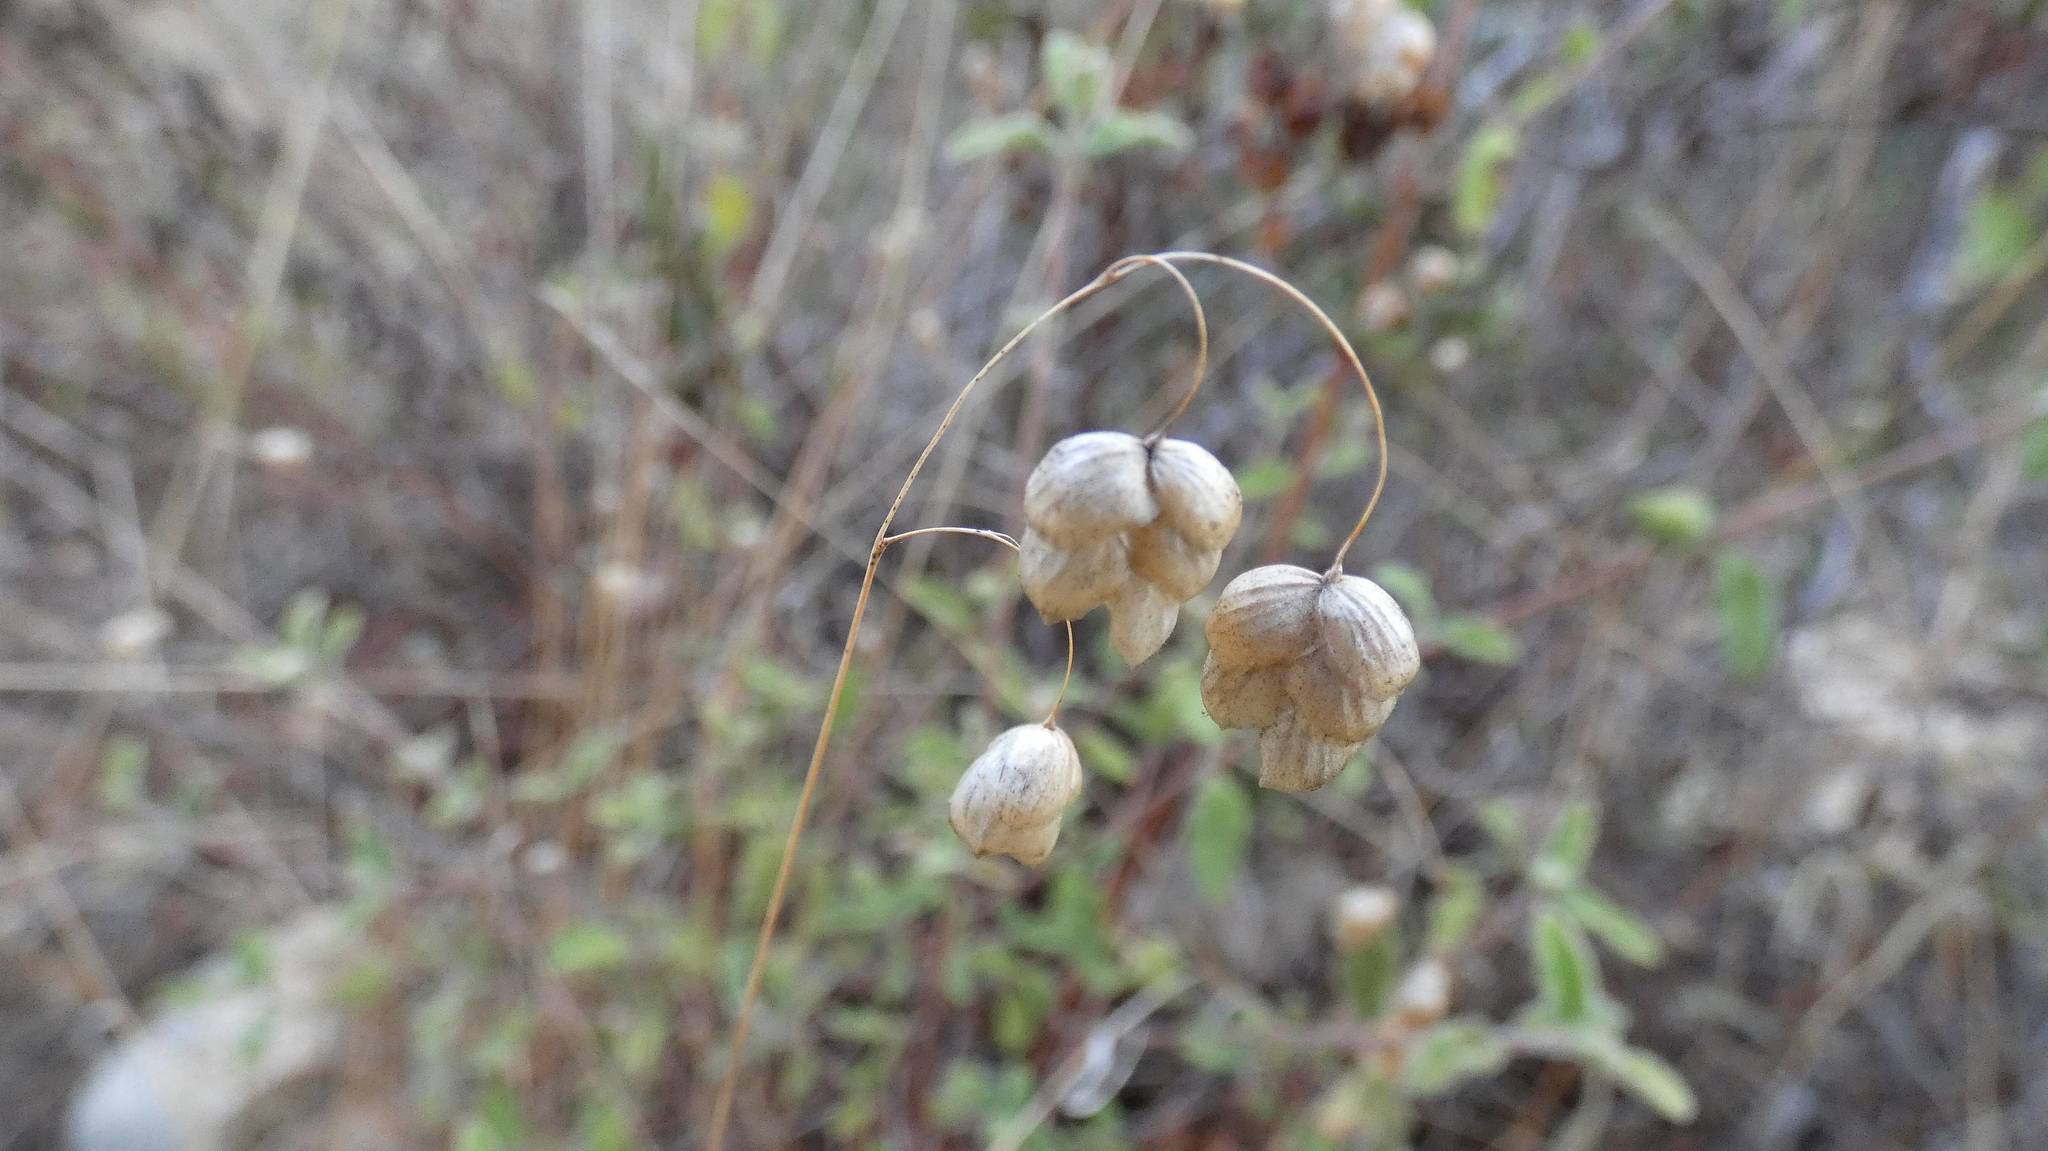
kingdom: Plantae
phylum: Tracheophyta
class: Liliopsida
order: Poales
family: Poaceae
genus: Briza
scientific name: Briza maxima
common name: Big quakinggrass
